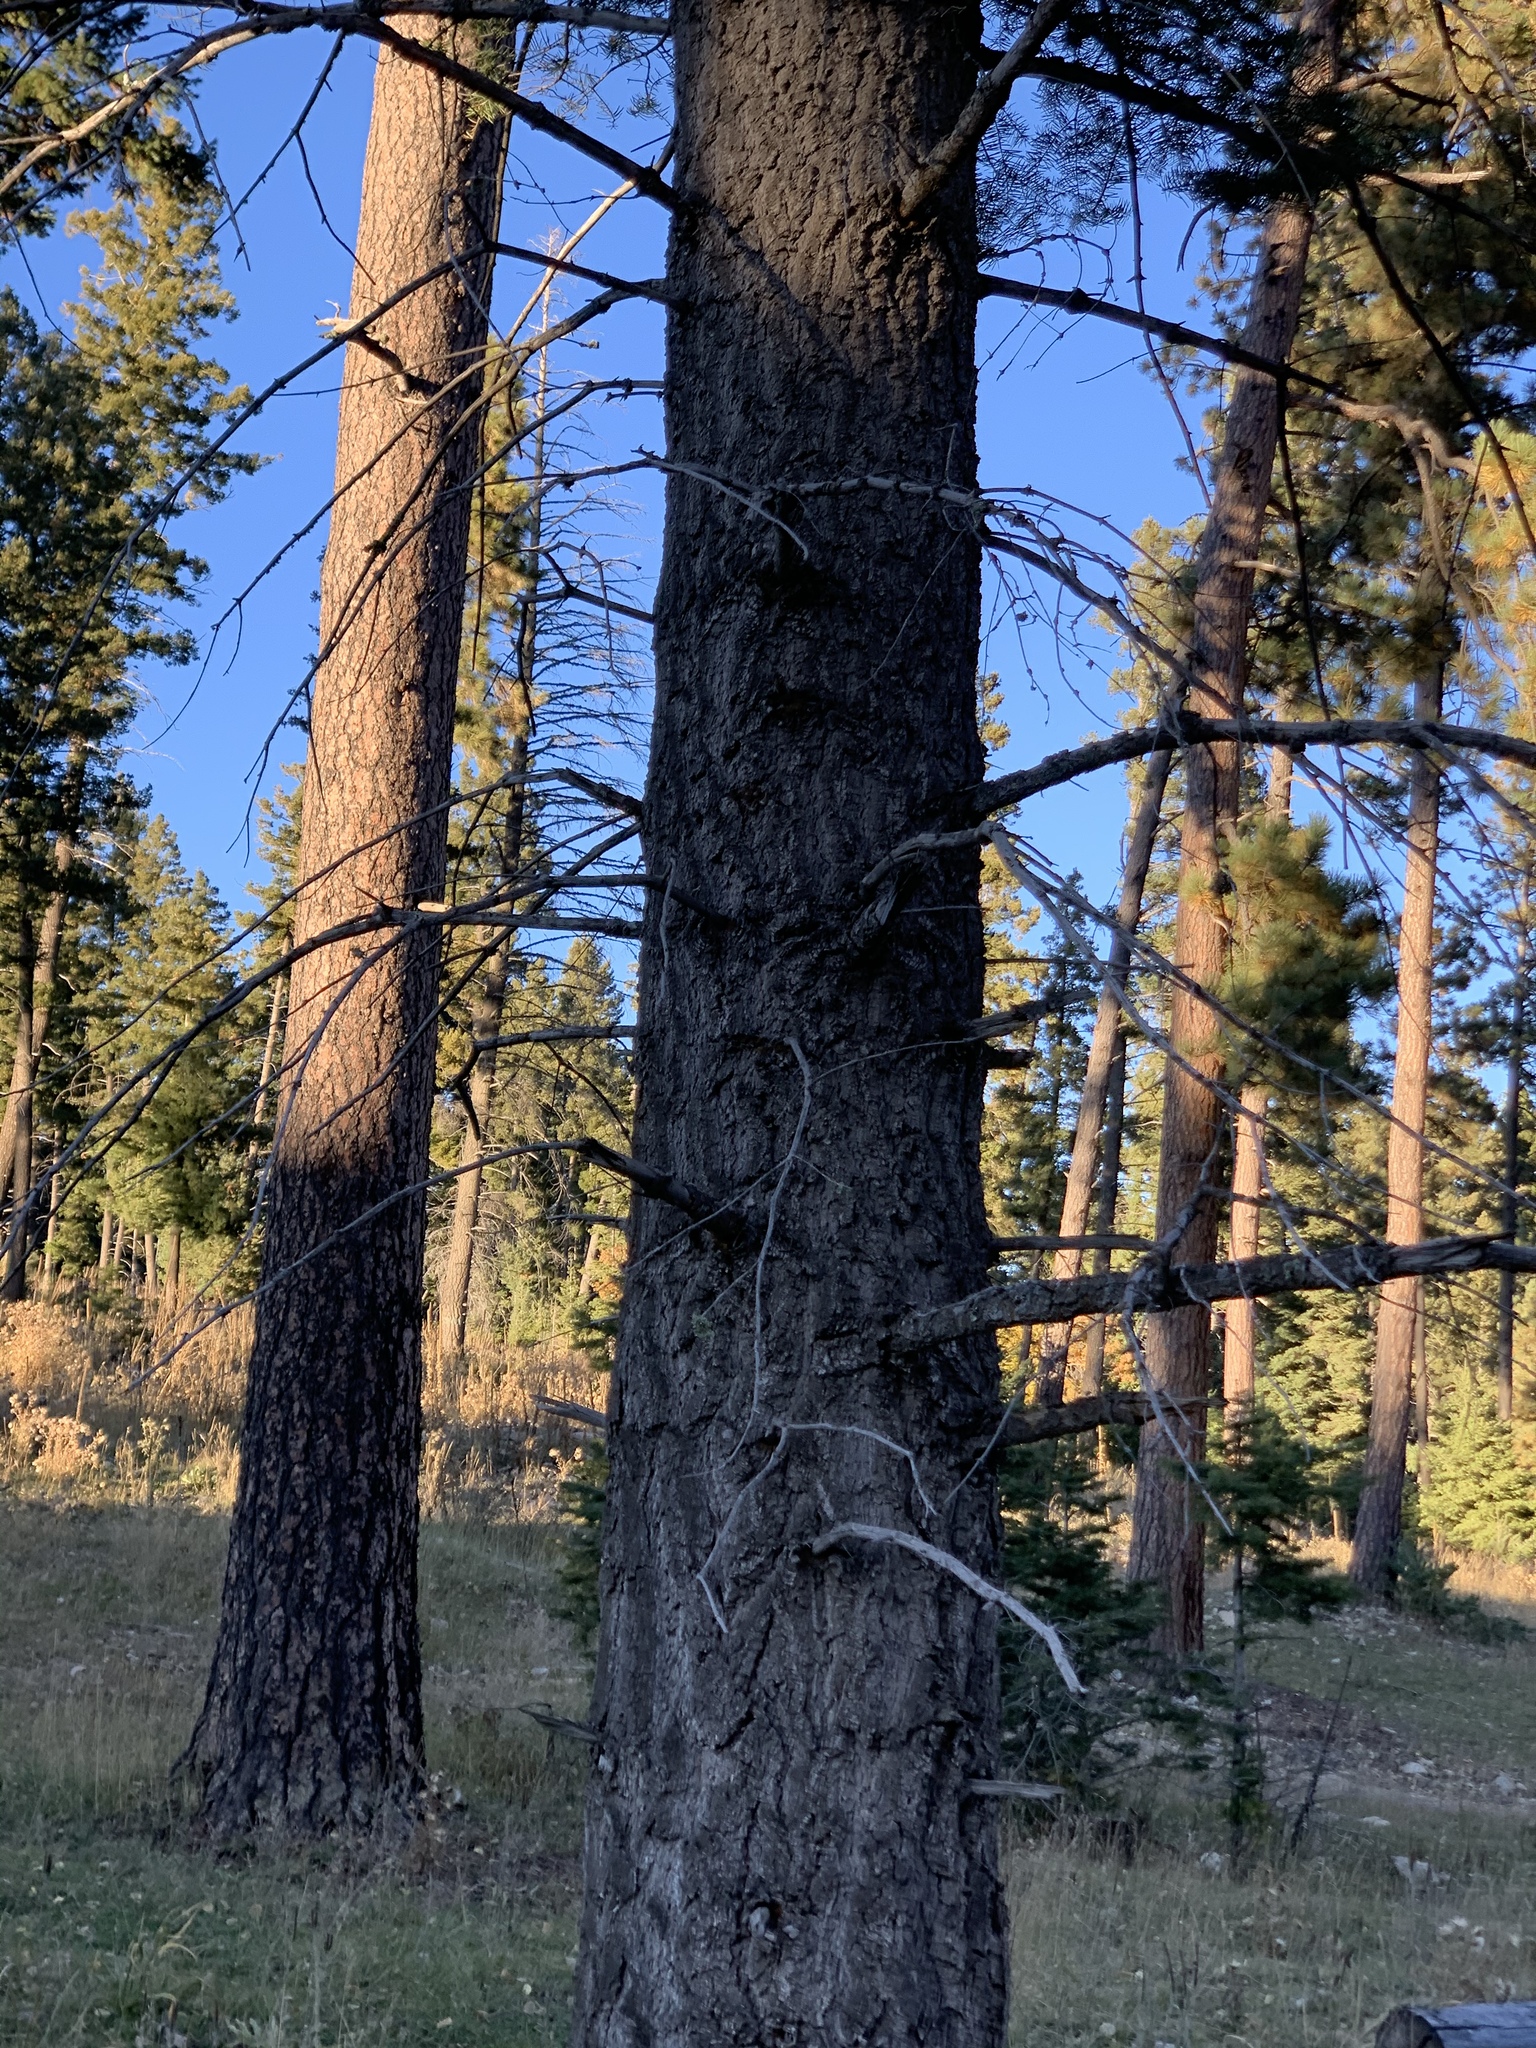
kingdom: Plantae
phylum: Tracheophyta
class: Pinopsida
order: Pinales
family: Pinaceae
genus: Abies
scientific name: Abies concolor
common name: Colorado fir
